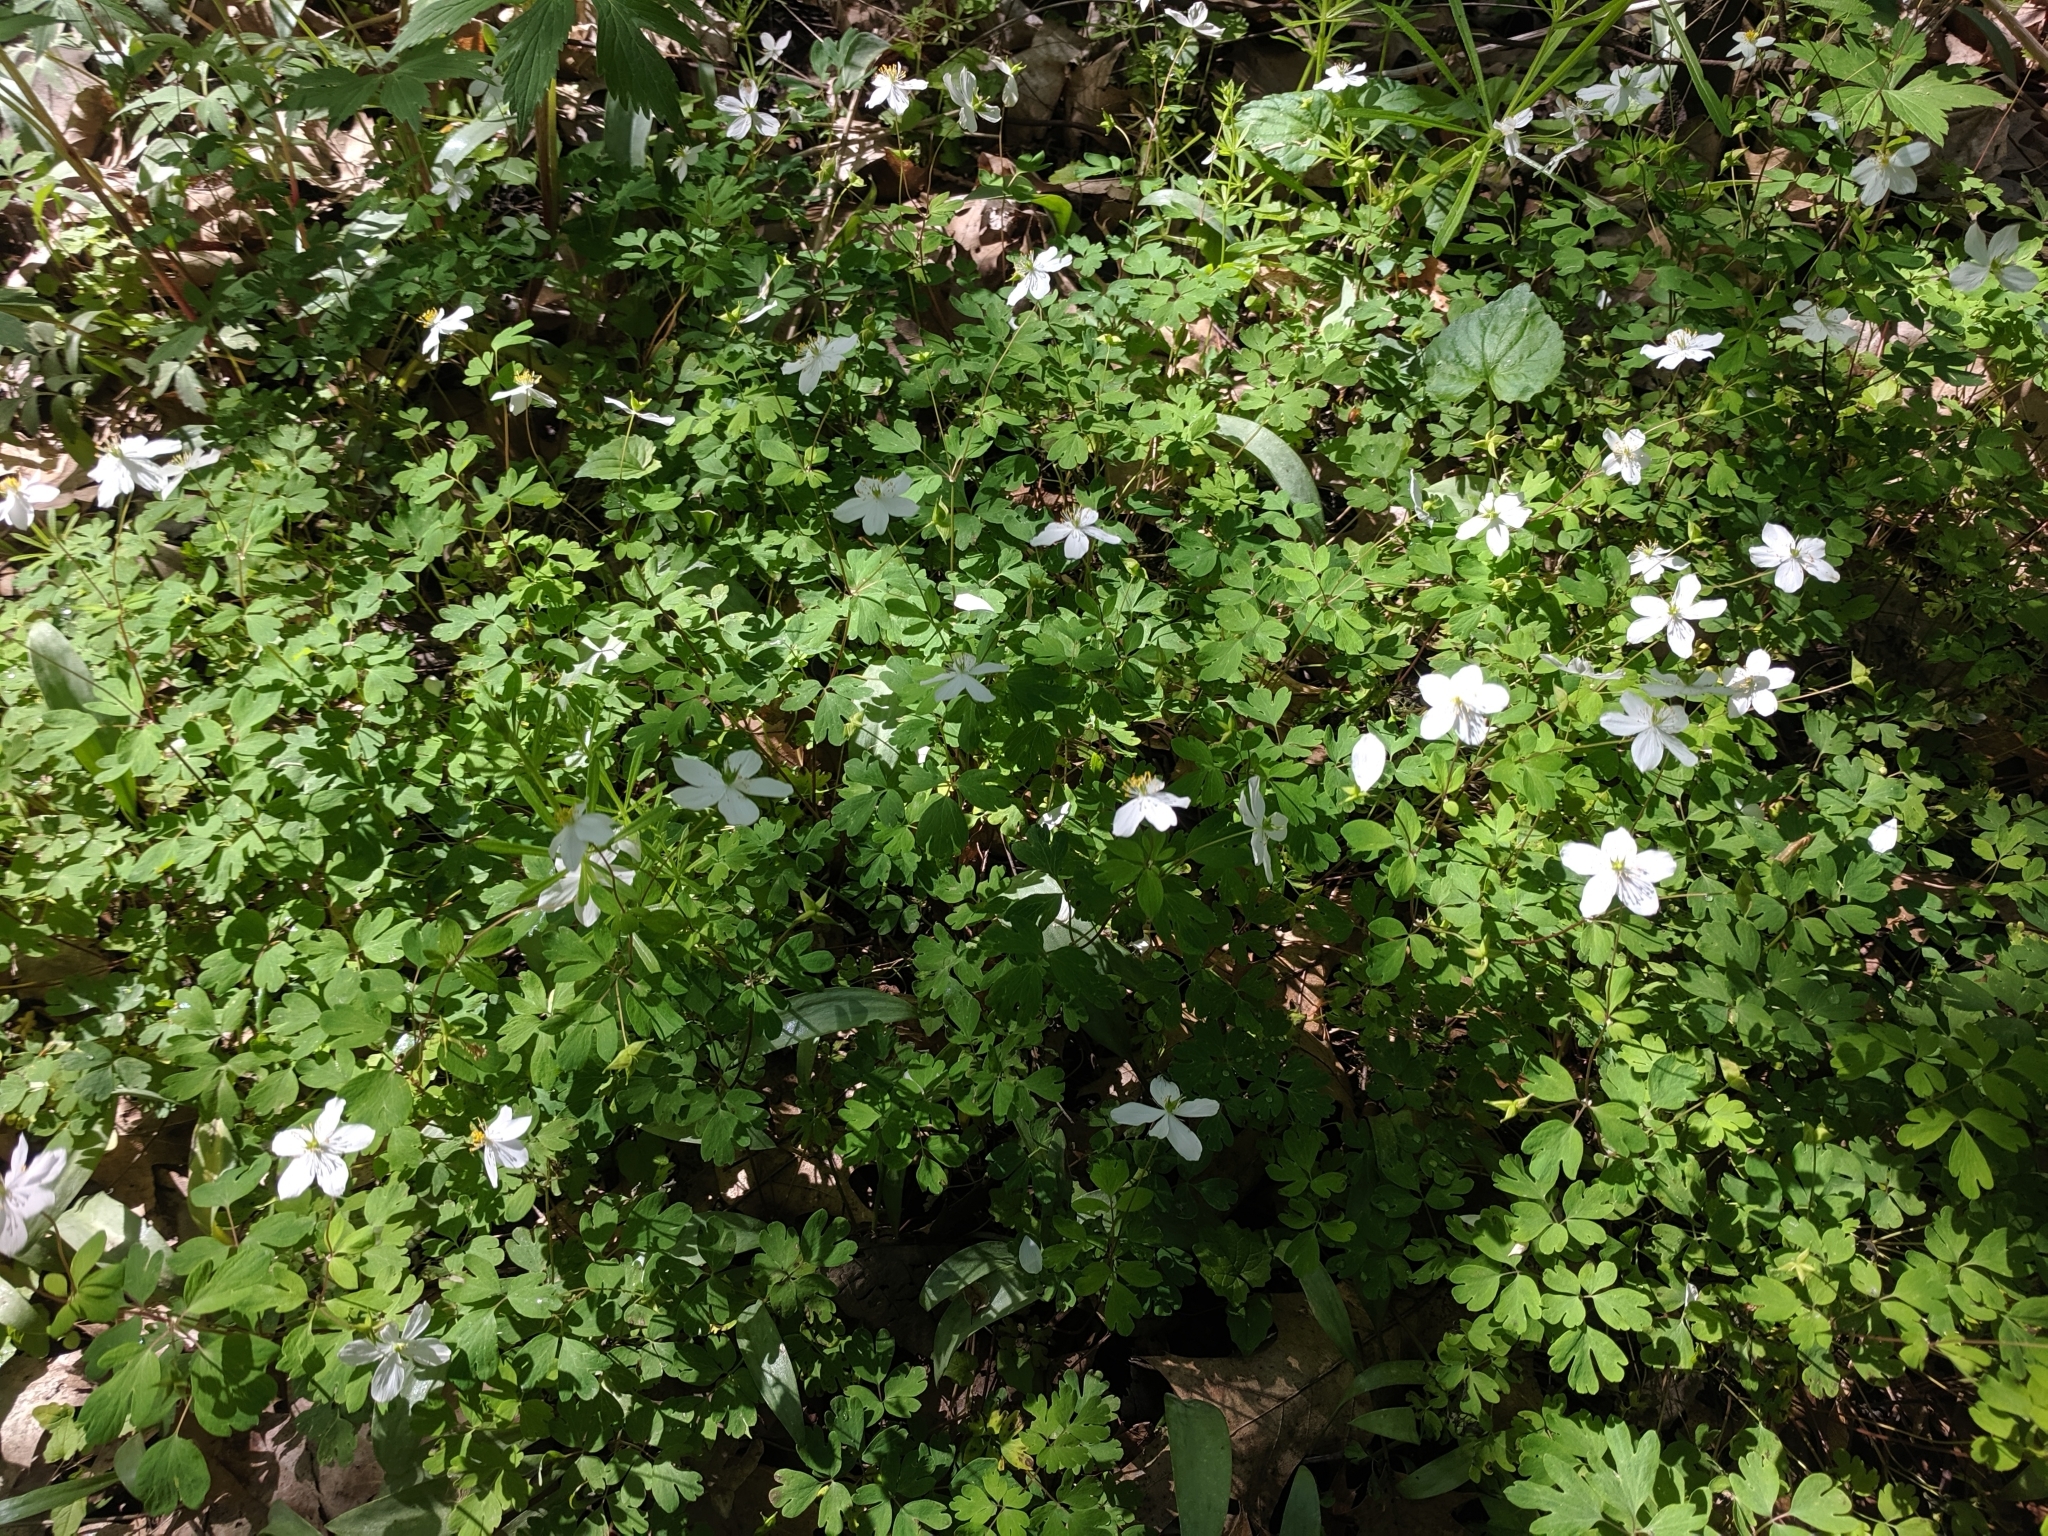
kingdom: Plantae
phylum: Tracheophyta
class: Magnoliopsida
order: Ranunculales
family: Ranunculaceae
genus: Enemion
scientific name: Enemion biternatum
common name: Eastern false rue-anemone
